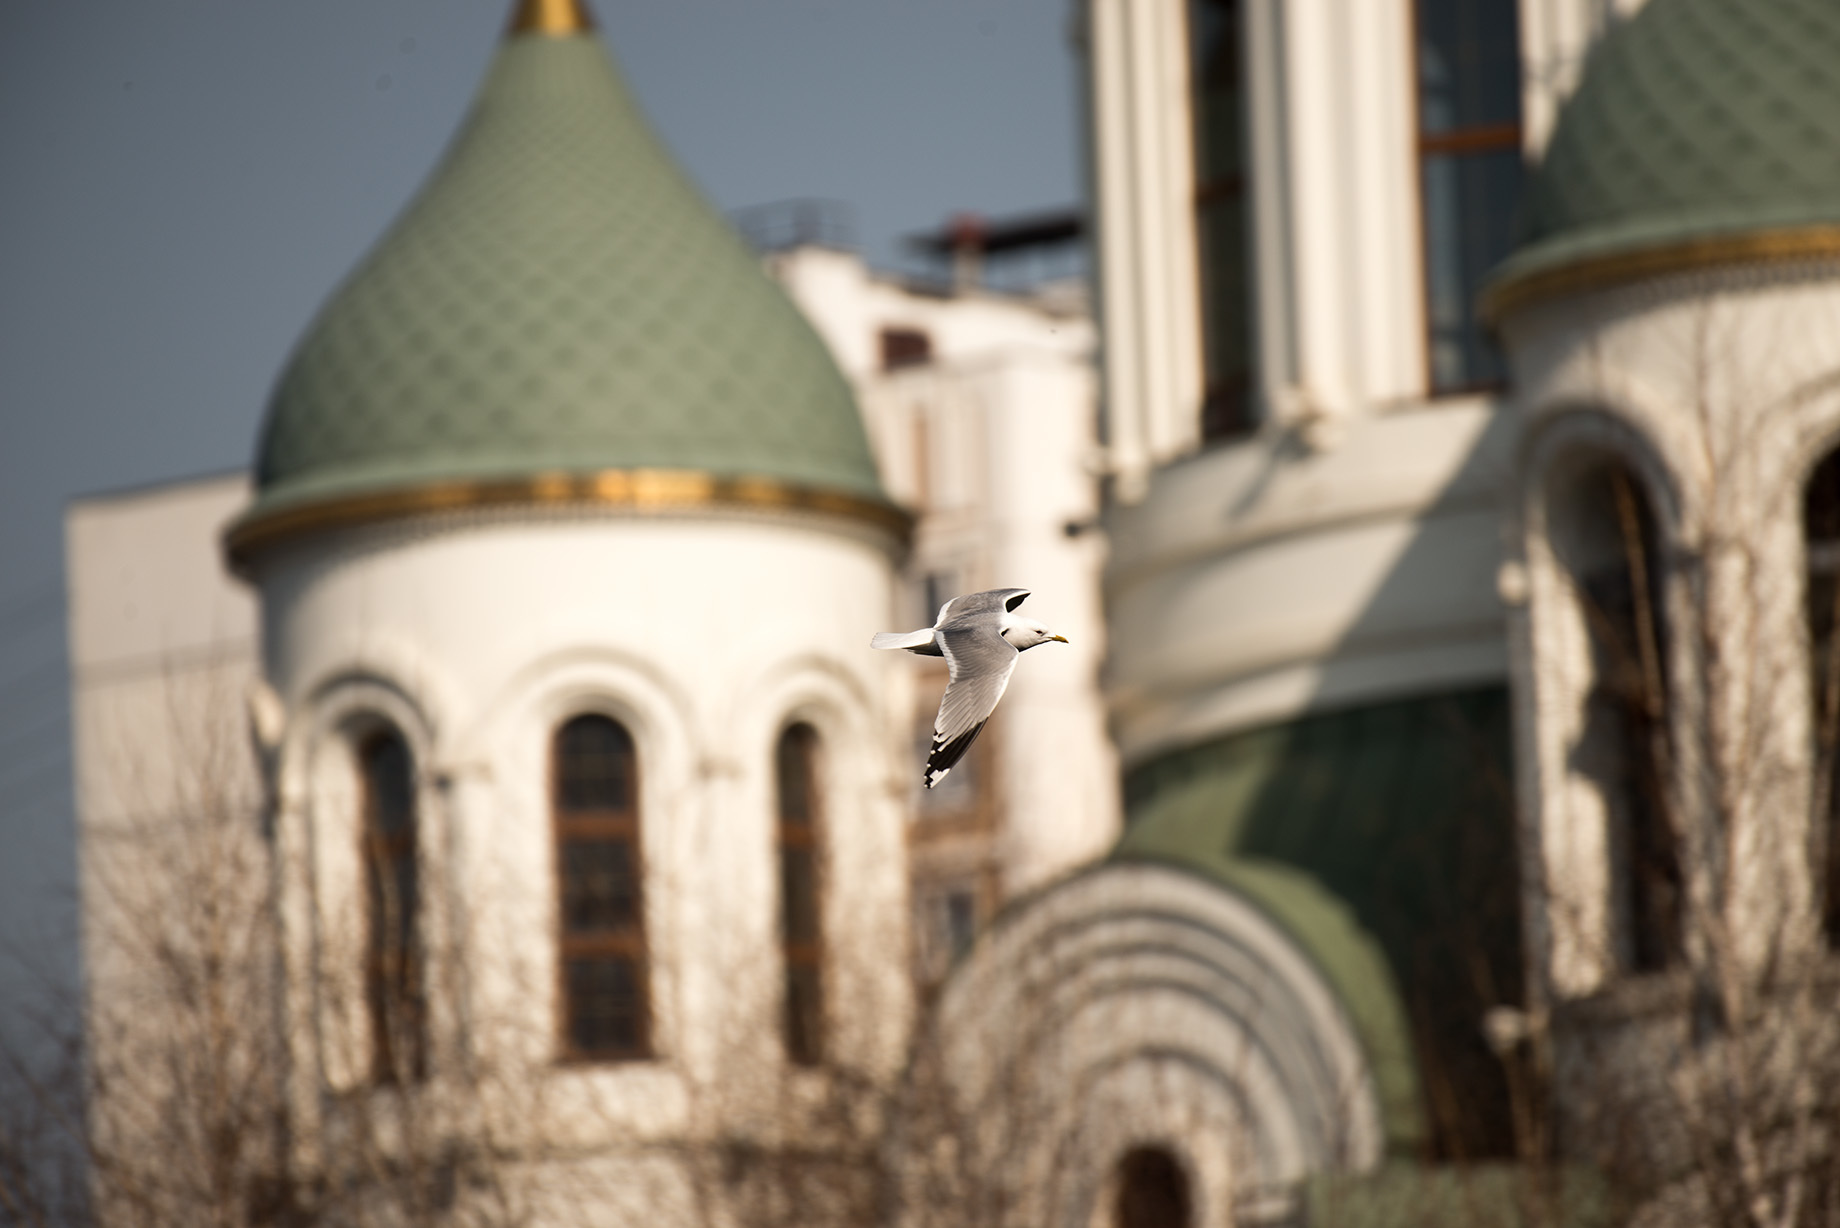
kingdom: Animalia
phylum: Chordata
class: Aves
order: Charadriiformes
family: Laridae
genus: Larus
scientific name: Larus canus
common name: Mew gull
